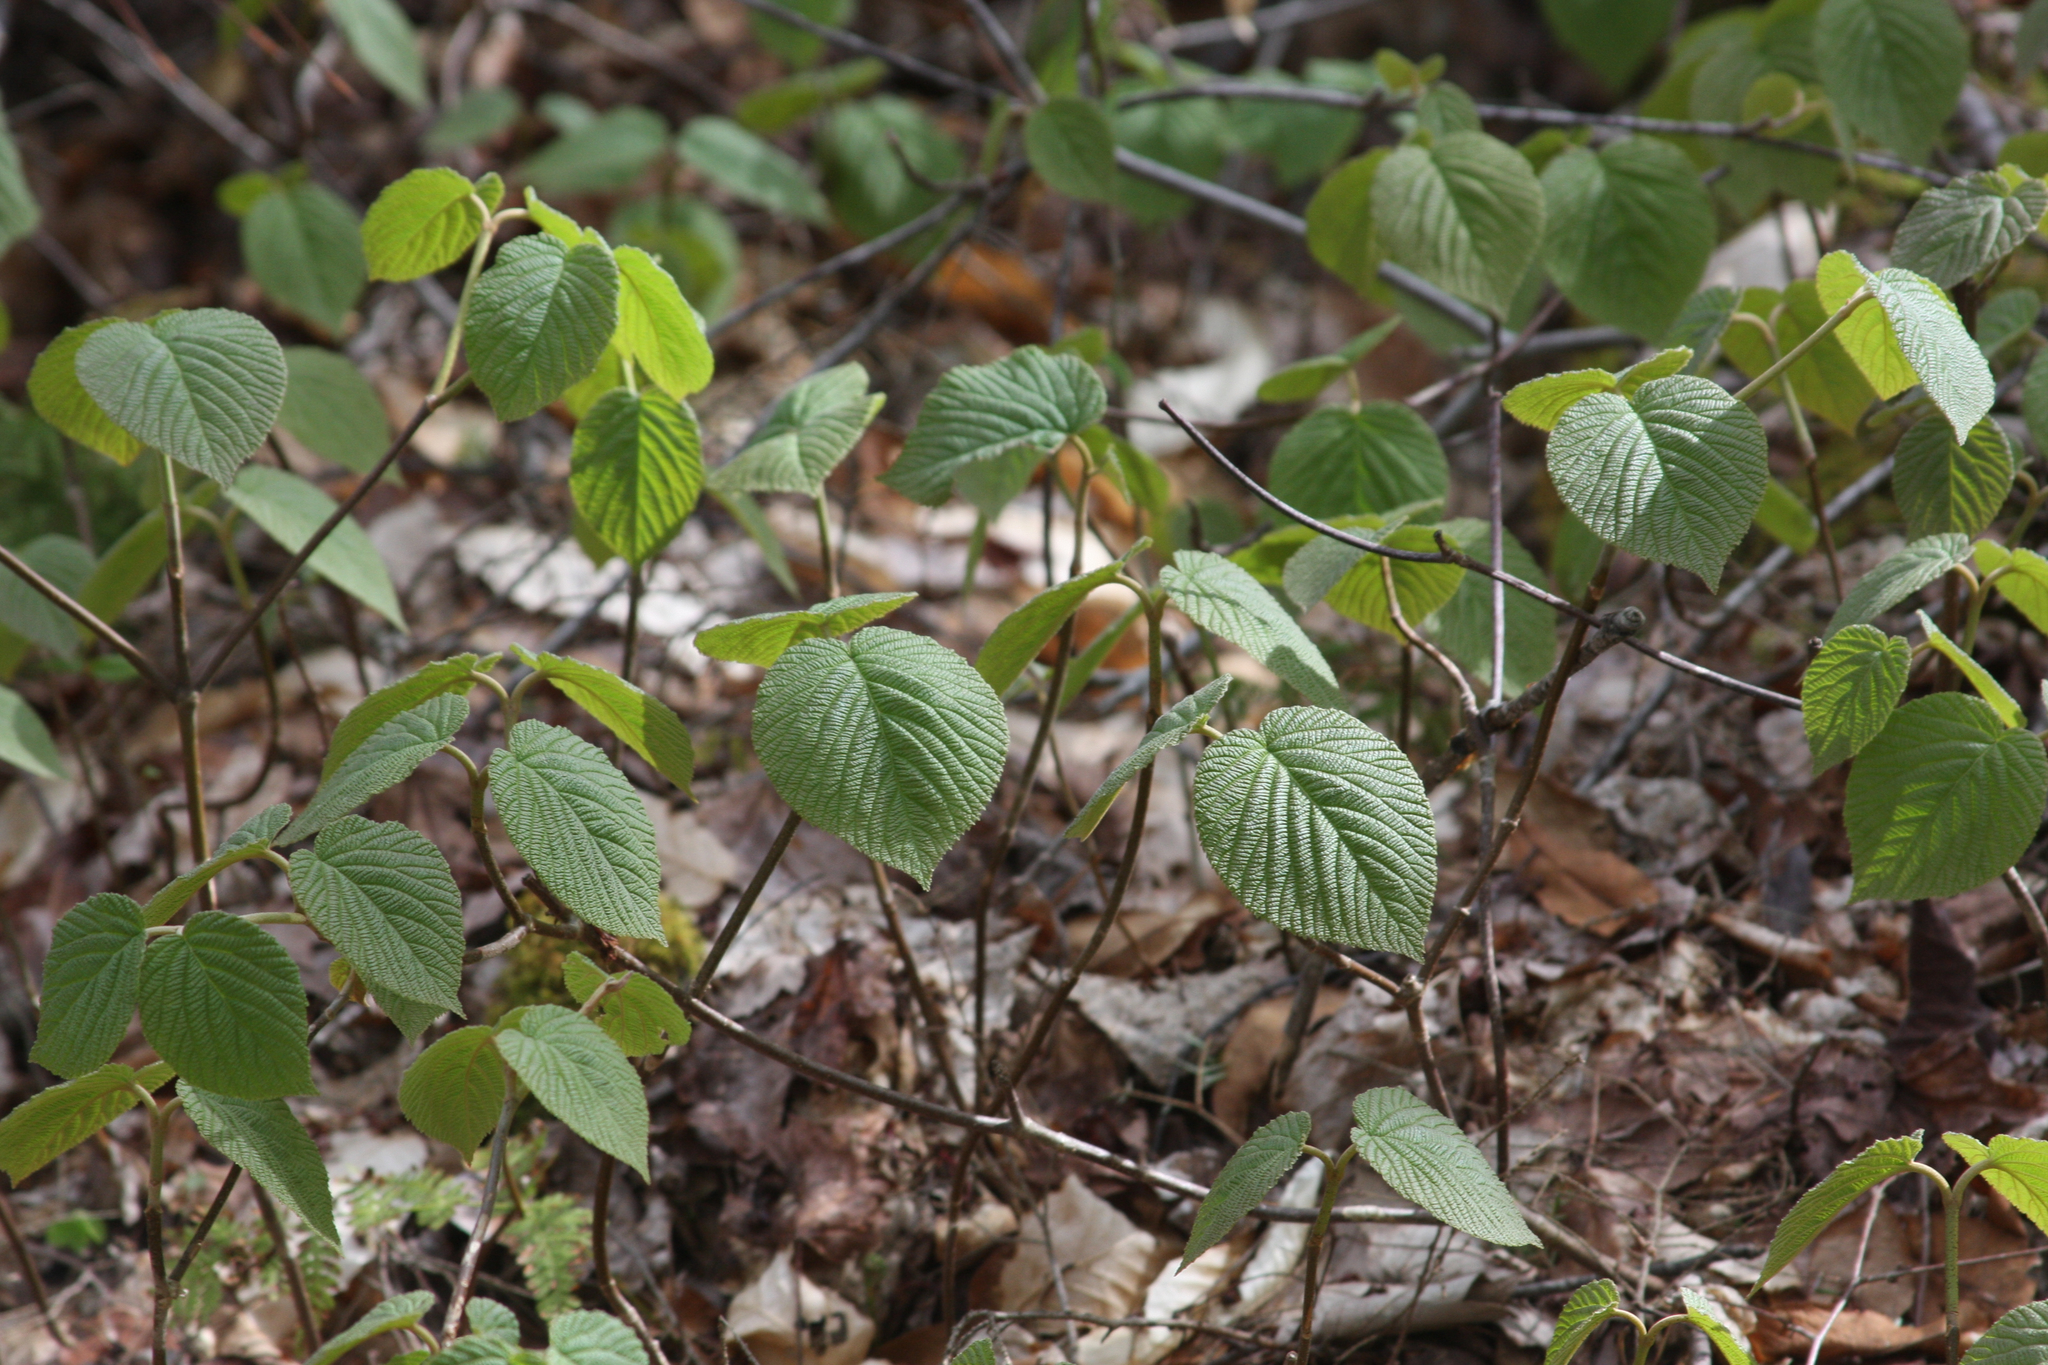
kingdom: Plantae
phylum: Tracheophyta
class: Magnoliopsida
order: Dipsacales
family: Viburnaceae
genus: Viburnum
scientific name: Viburnum lantanoides
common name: Hobblebush
